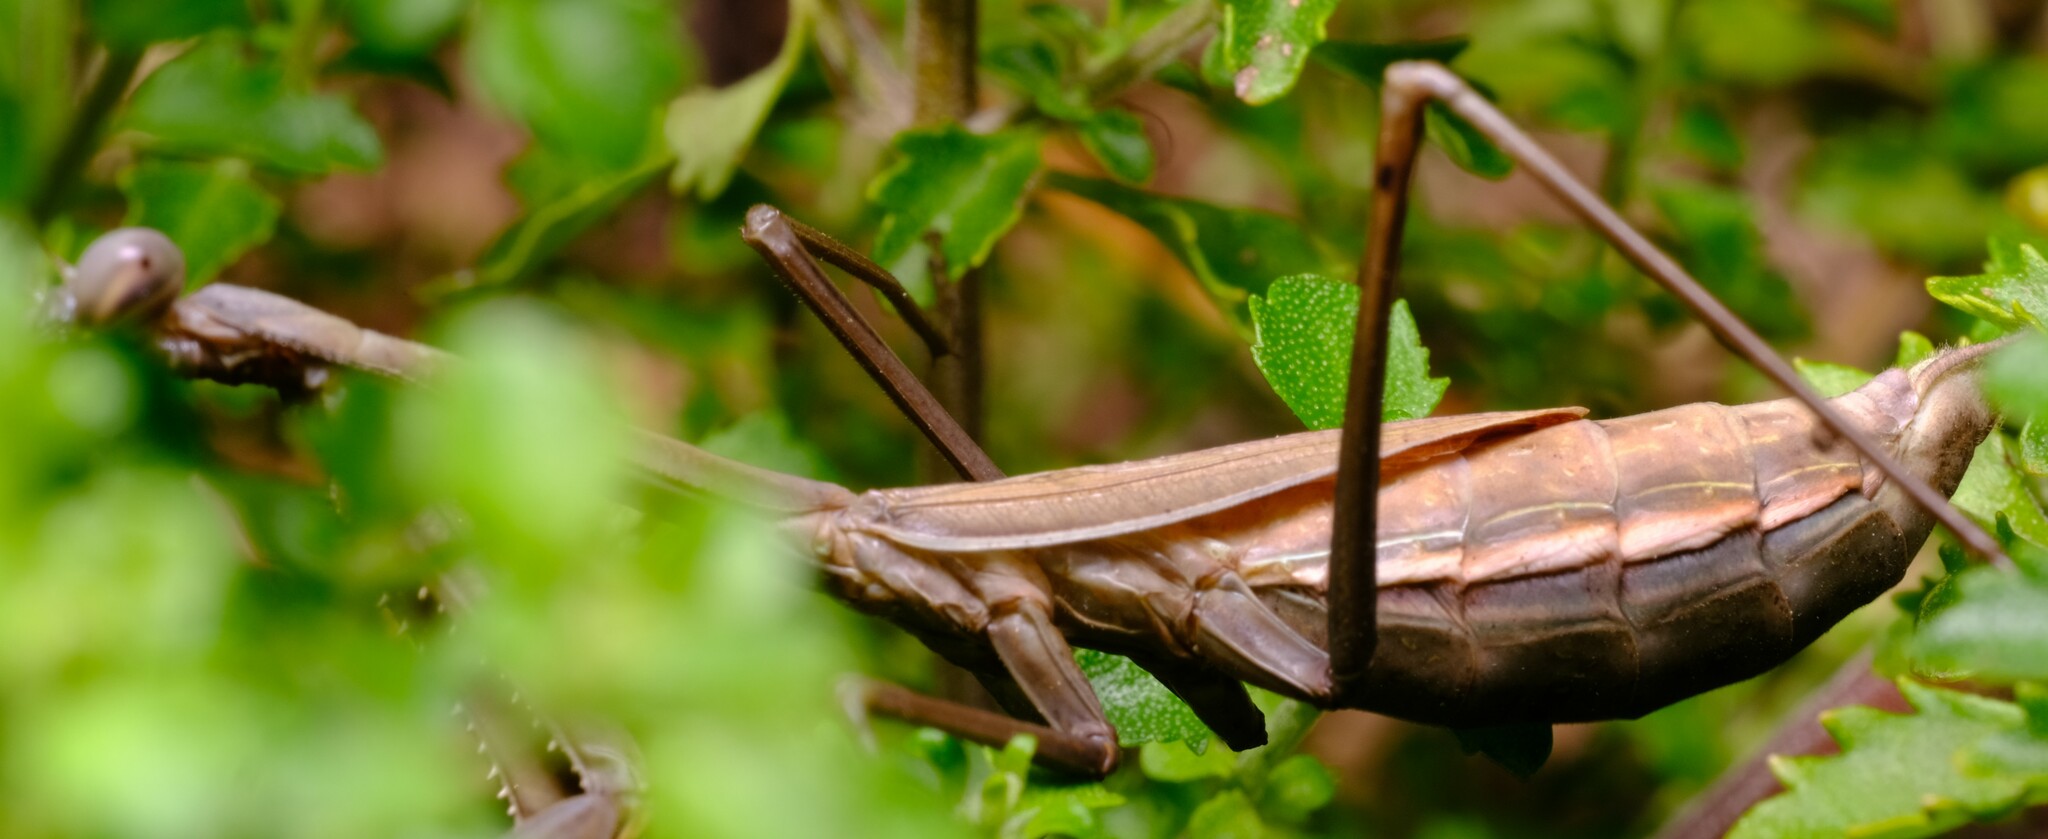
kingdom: Animalia
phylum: Arthropoda
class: Insecta
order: Mantodea
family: Mantidae
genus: Pseudomantis
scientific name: Pseudomantis albofimbriata
